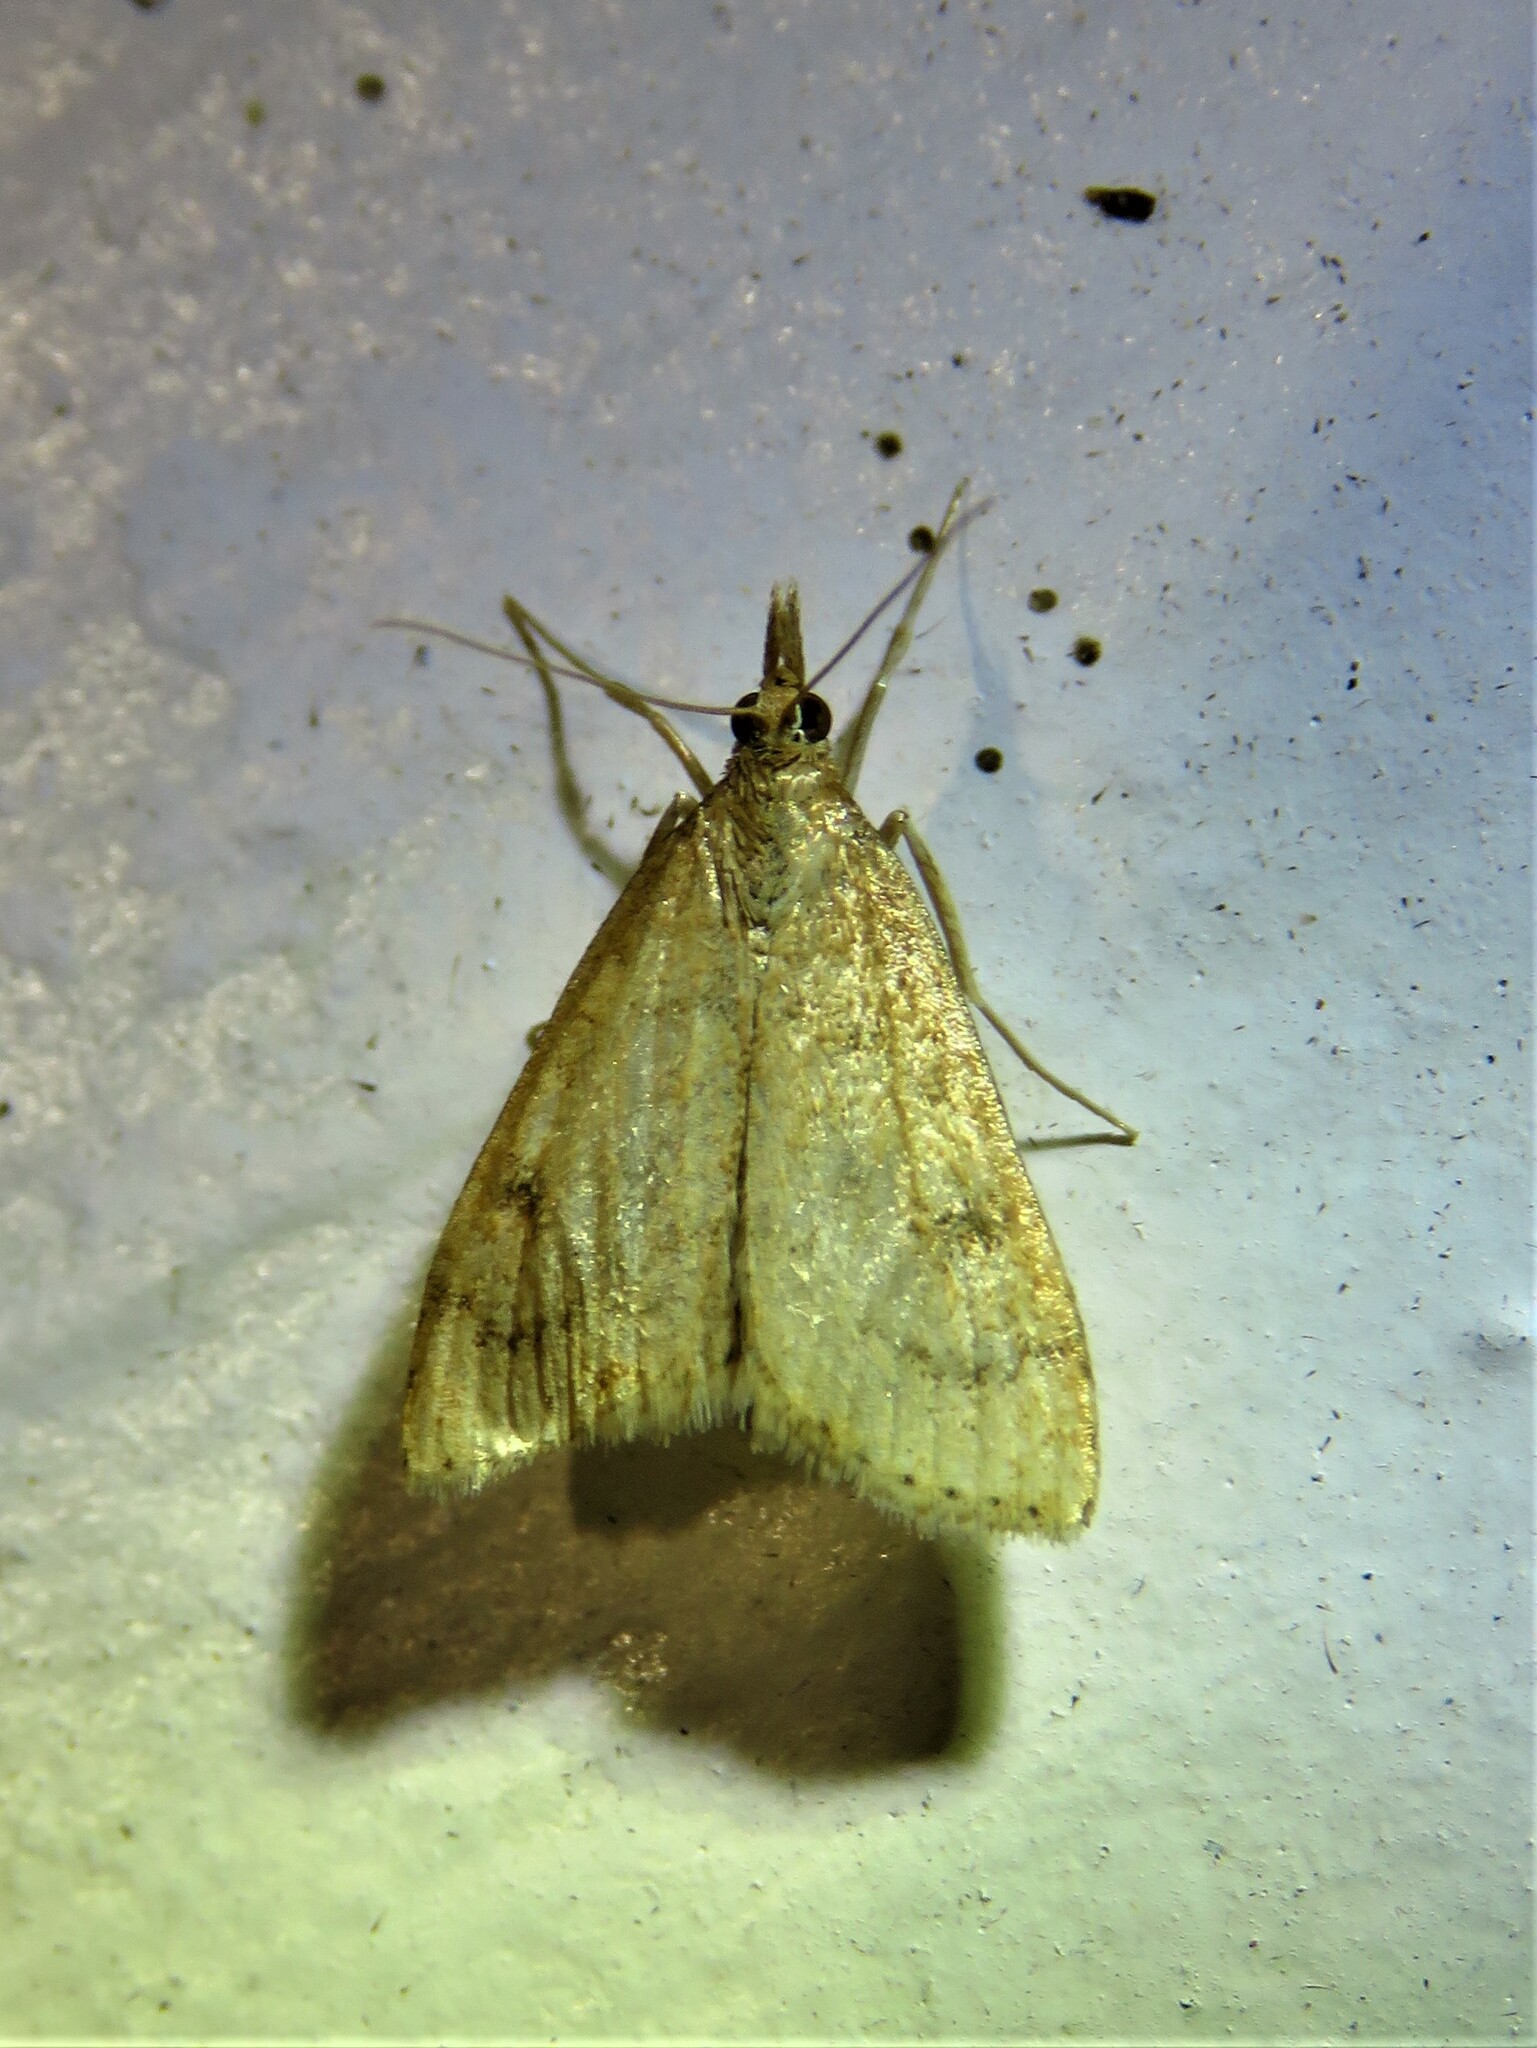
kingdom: Animalia
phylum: Arthropoda
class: Insecta
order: Lepidoptera
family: Crambidae
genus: Udea
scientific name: Udea rubigalis
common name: Celery leaftier moth
